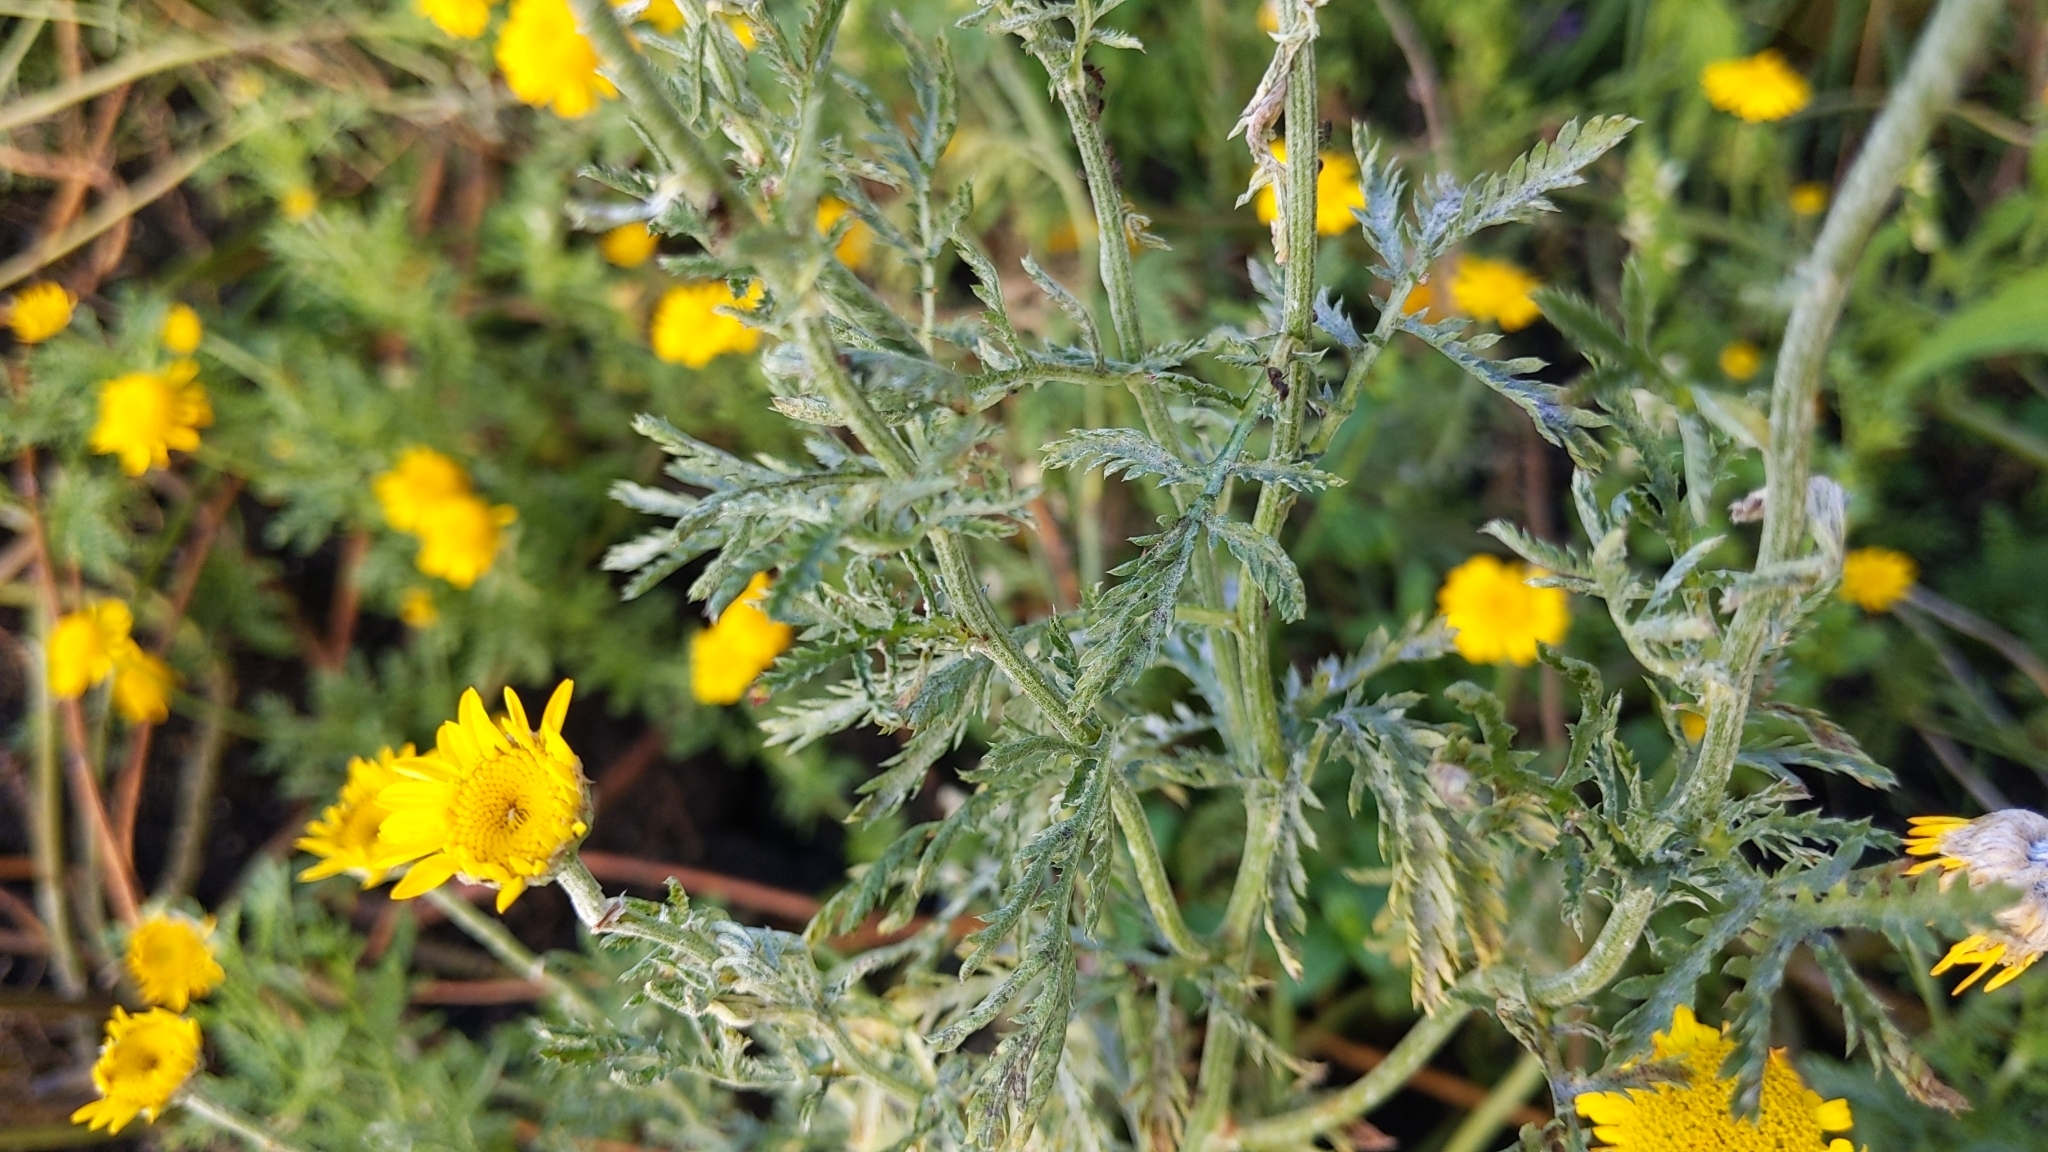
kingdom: Plantae
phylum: Tracheophyta
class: Magnoliopsida
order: Asterales
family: Asteraceae
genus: Cota
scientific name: Cota tinctoria
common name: Golden chamomile
